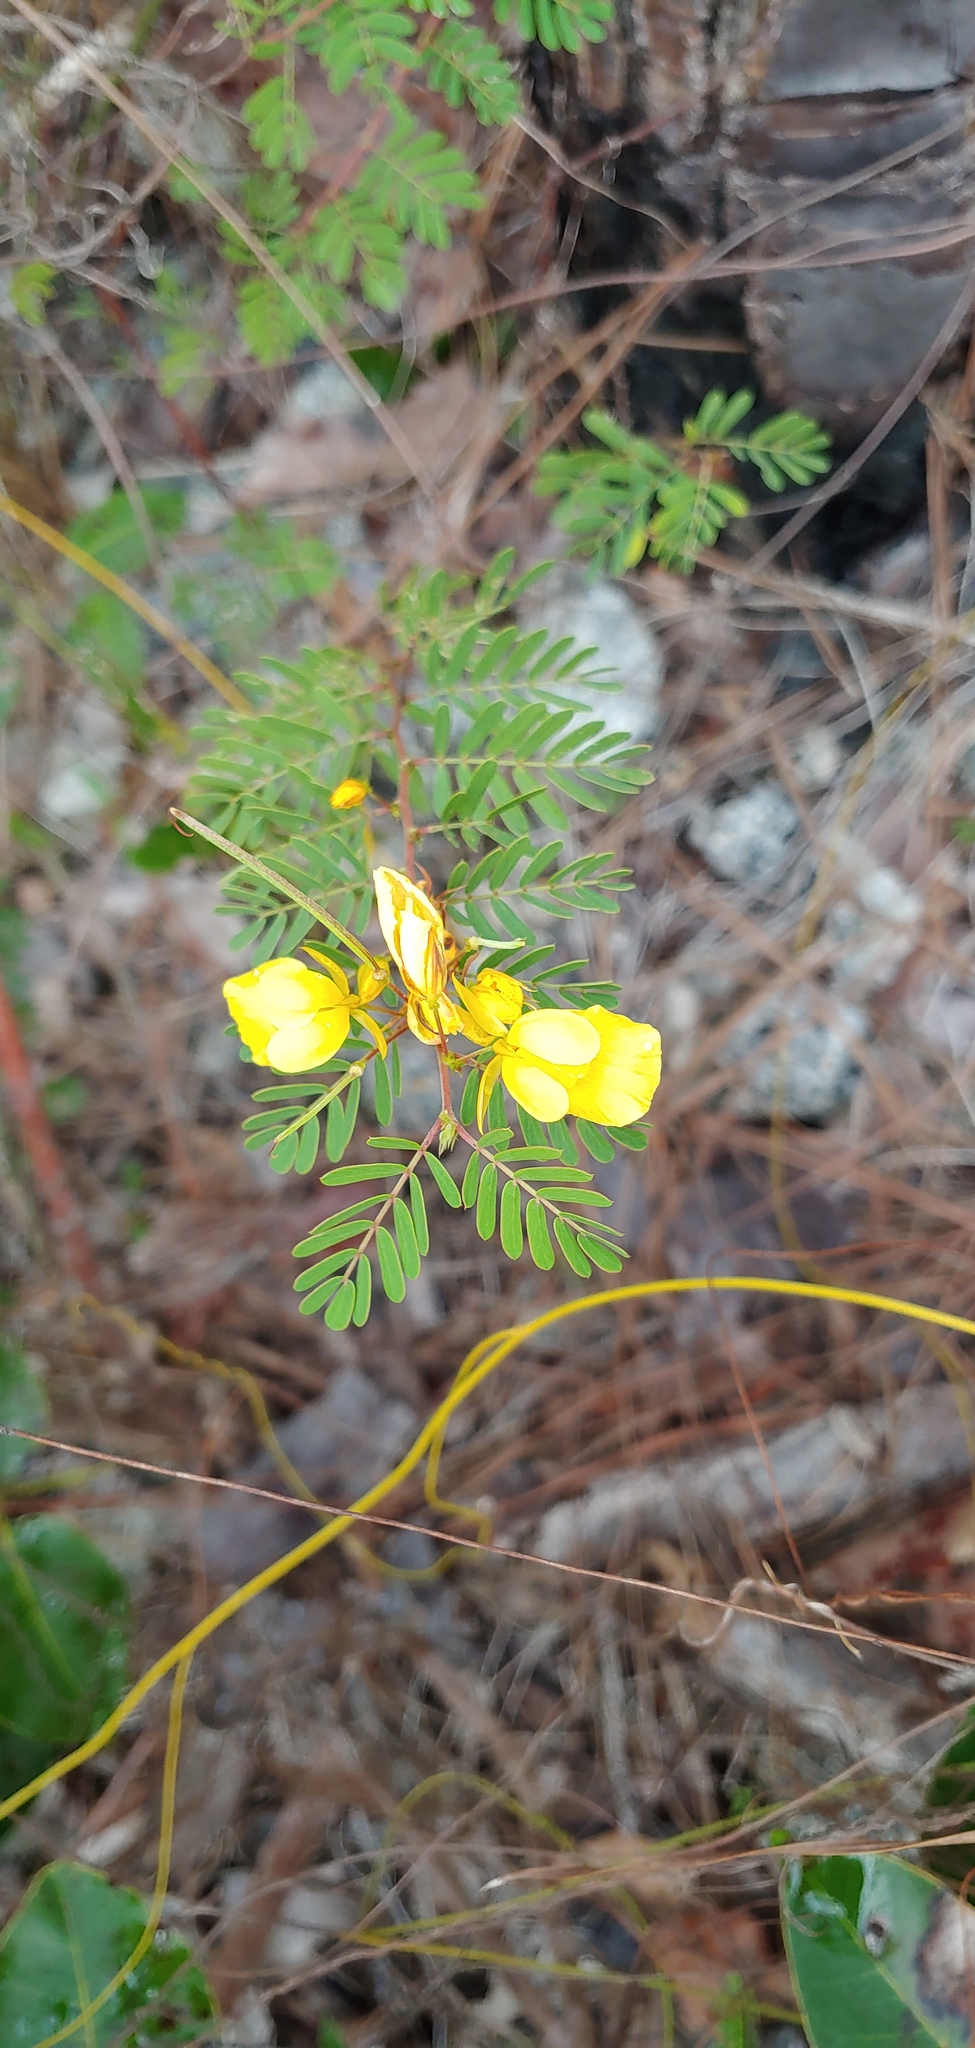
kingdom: Plantae
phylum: Tracheophyta
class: Magnoliopsida
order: Fabales
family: Fabaceae
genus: Chamaecrista
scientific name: Chamaecrista lineata
